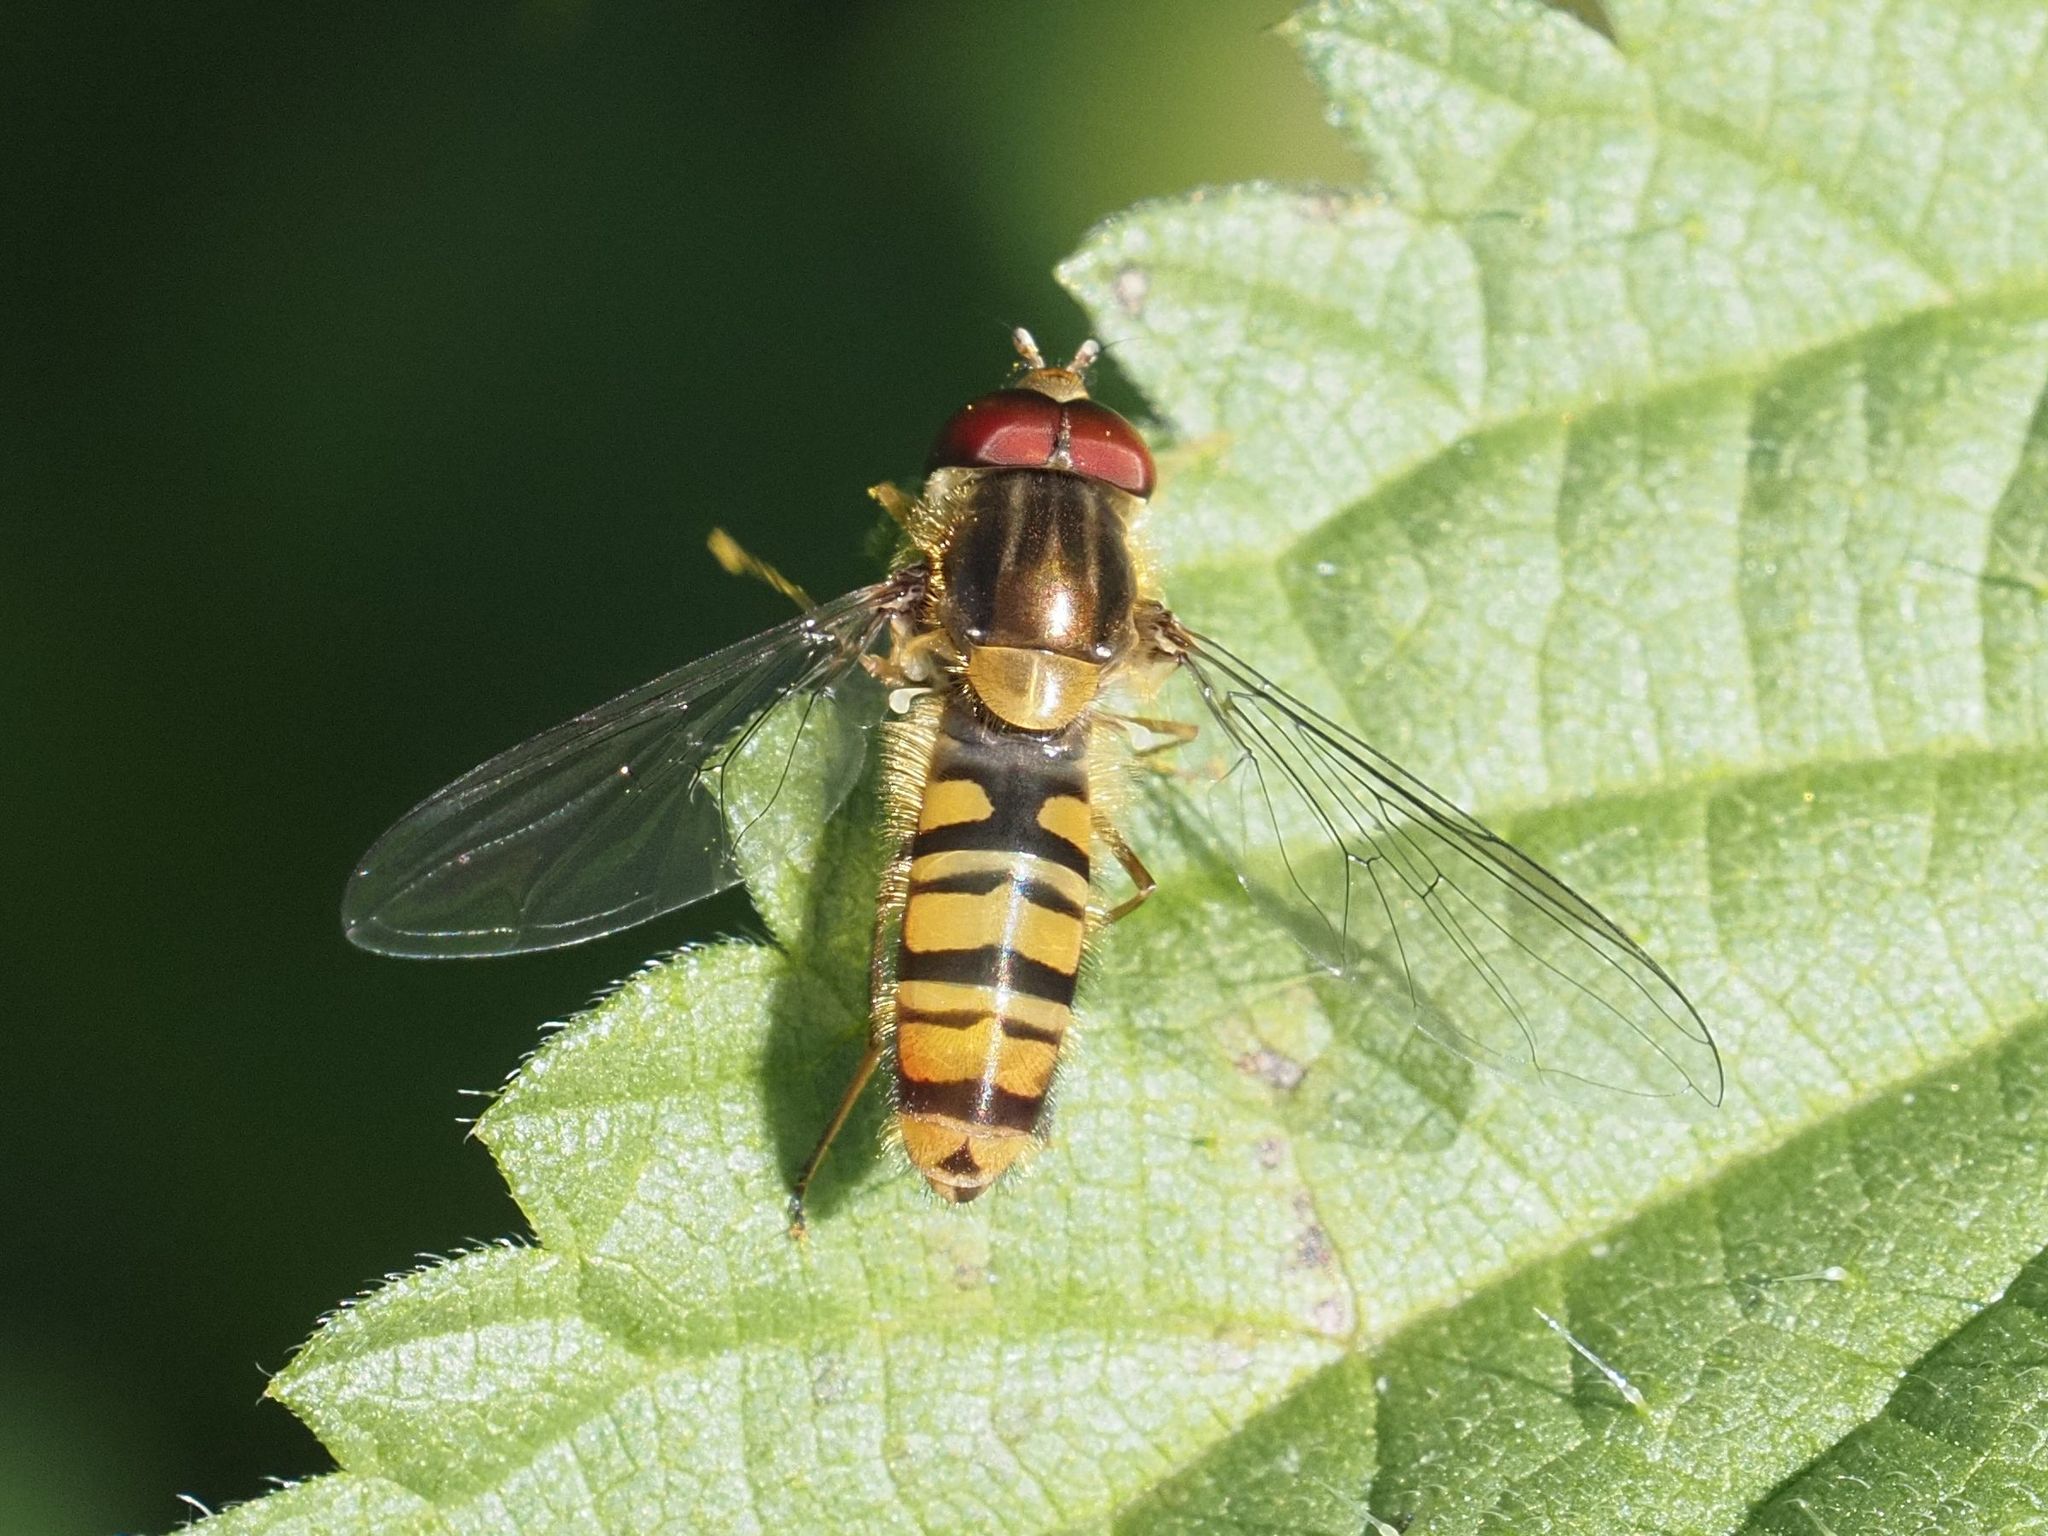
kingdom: Animalia
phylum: Arthropoda
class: Insecta
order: Diptera
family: Syrphidae
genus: Episyrphus
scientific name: Episyrphus balteatus
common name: Marmalade hoverfly
